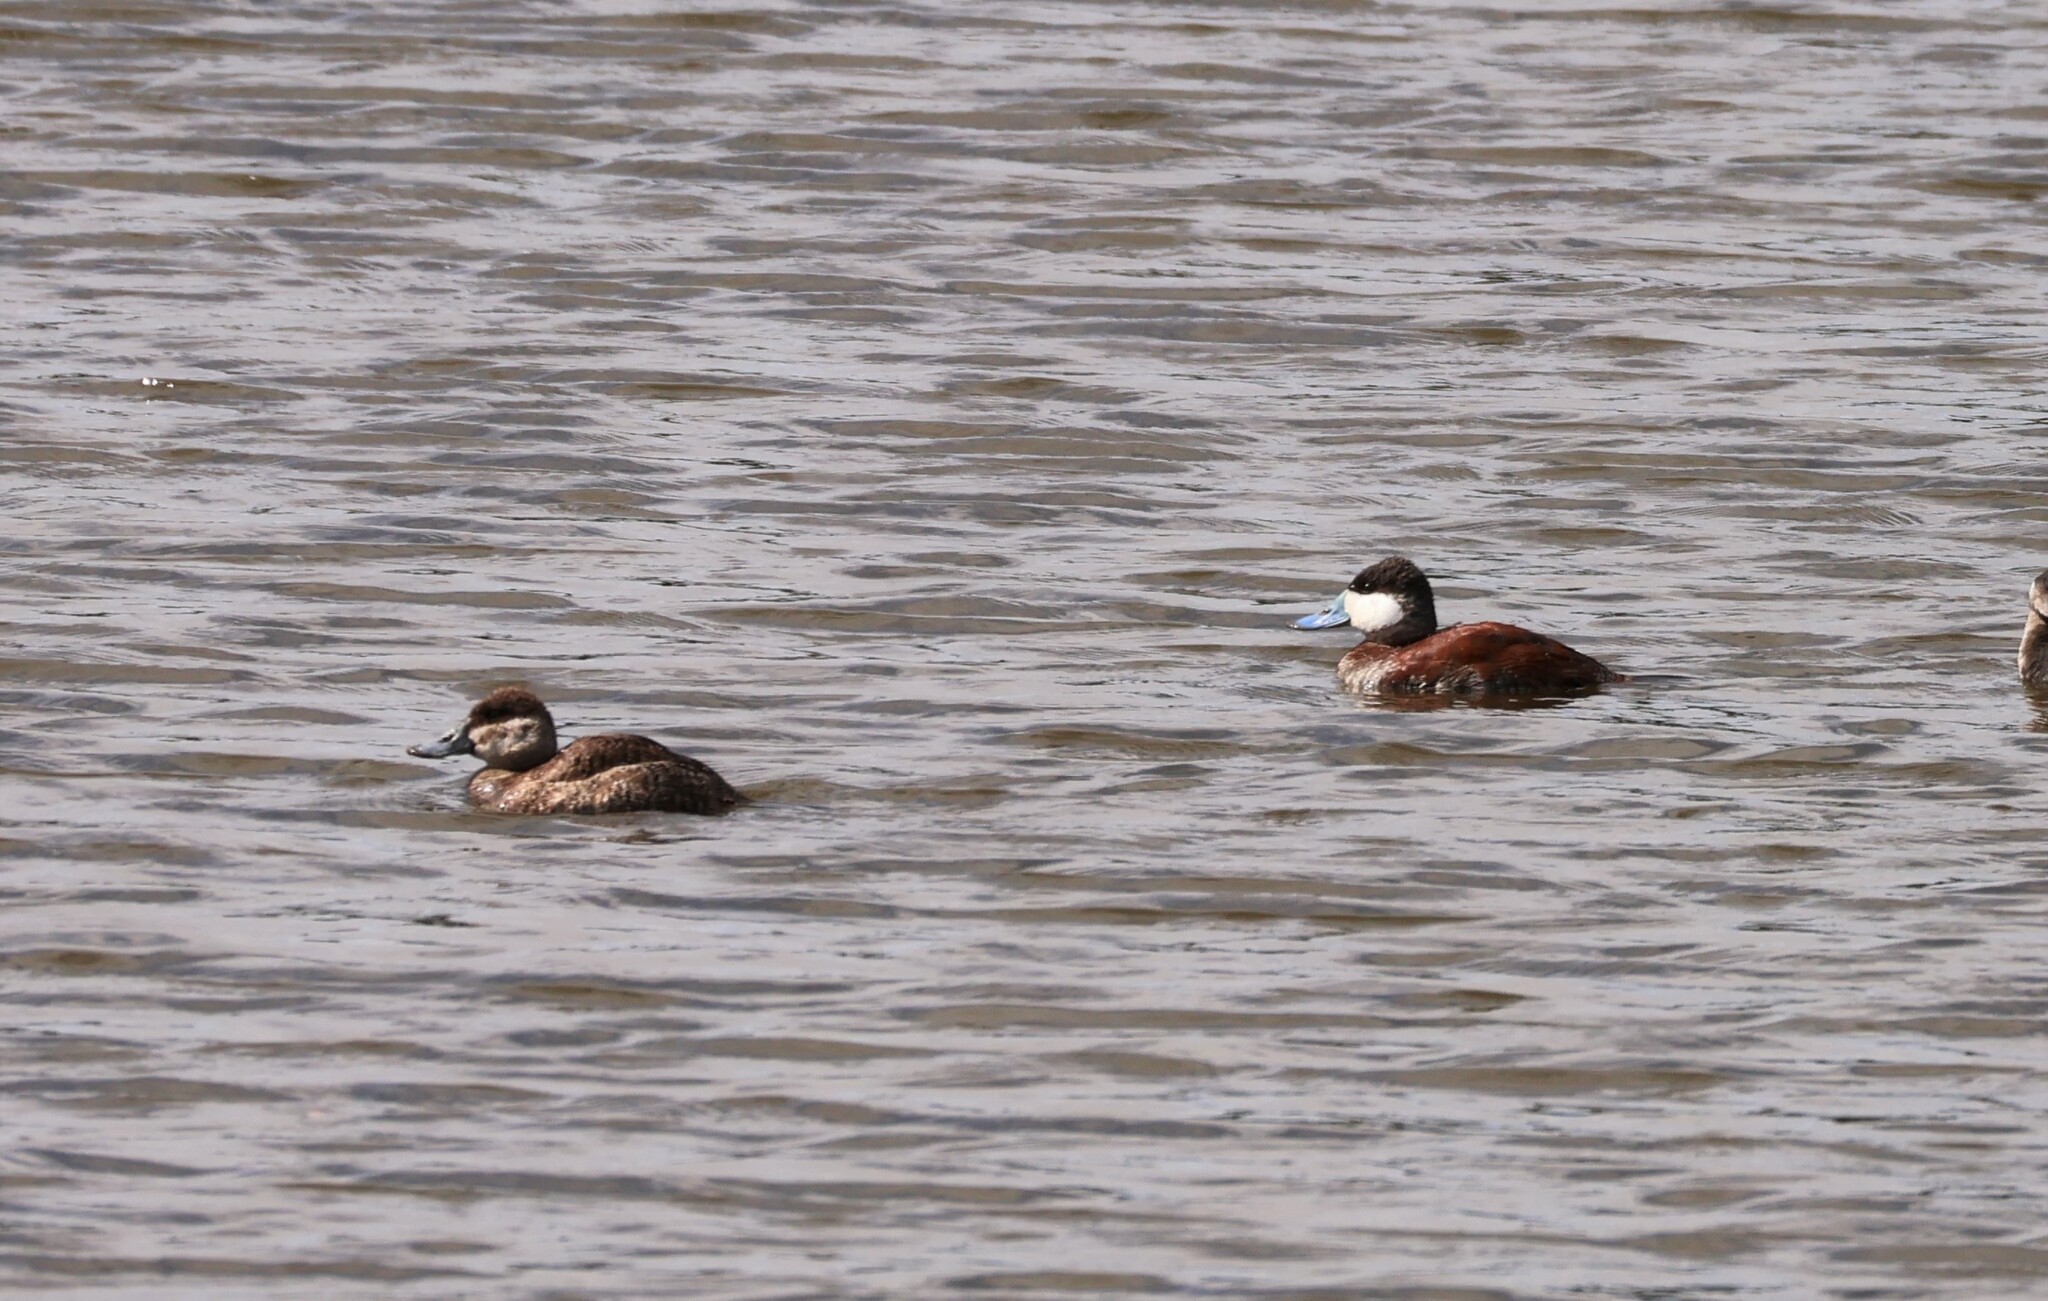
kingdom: Animalia
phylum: Chordata
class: Aves
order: Anseriformes
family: Anatidae
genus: Oxyura
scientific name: Oxyura jamaicensis
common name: Ruddy duck
